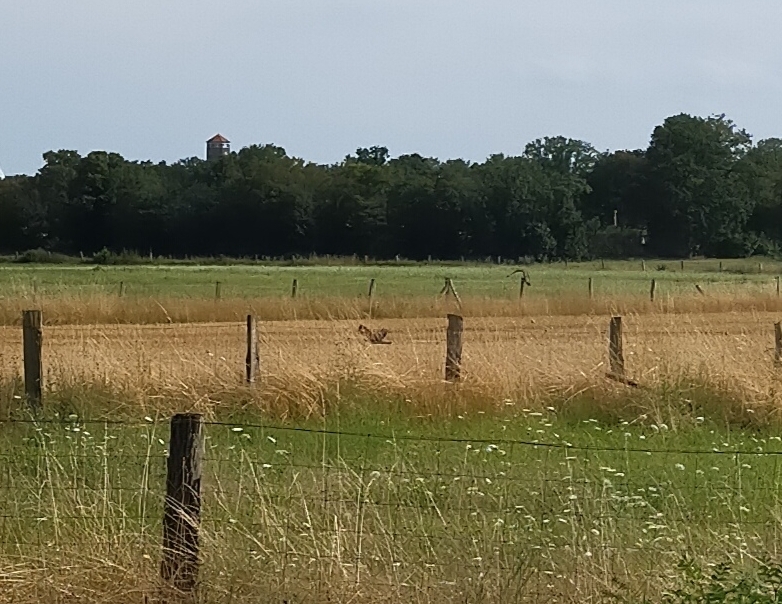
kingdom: Animalia
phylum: Chordata
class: Aves
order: Accipitriformes
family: Accipitridae
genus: Buteo
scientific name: Buteo buteo
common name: Common buzzard
